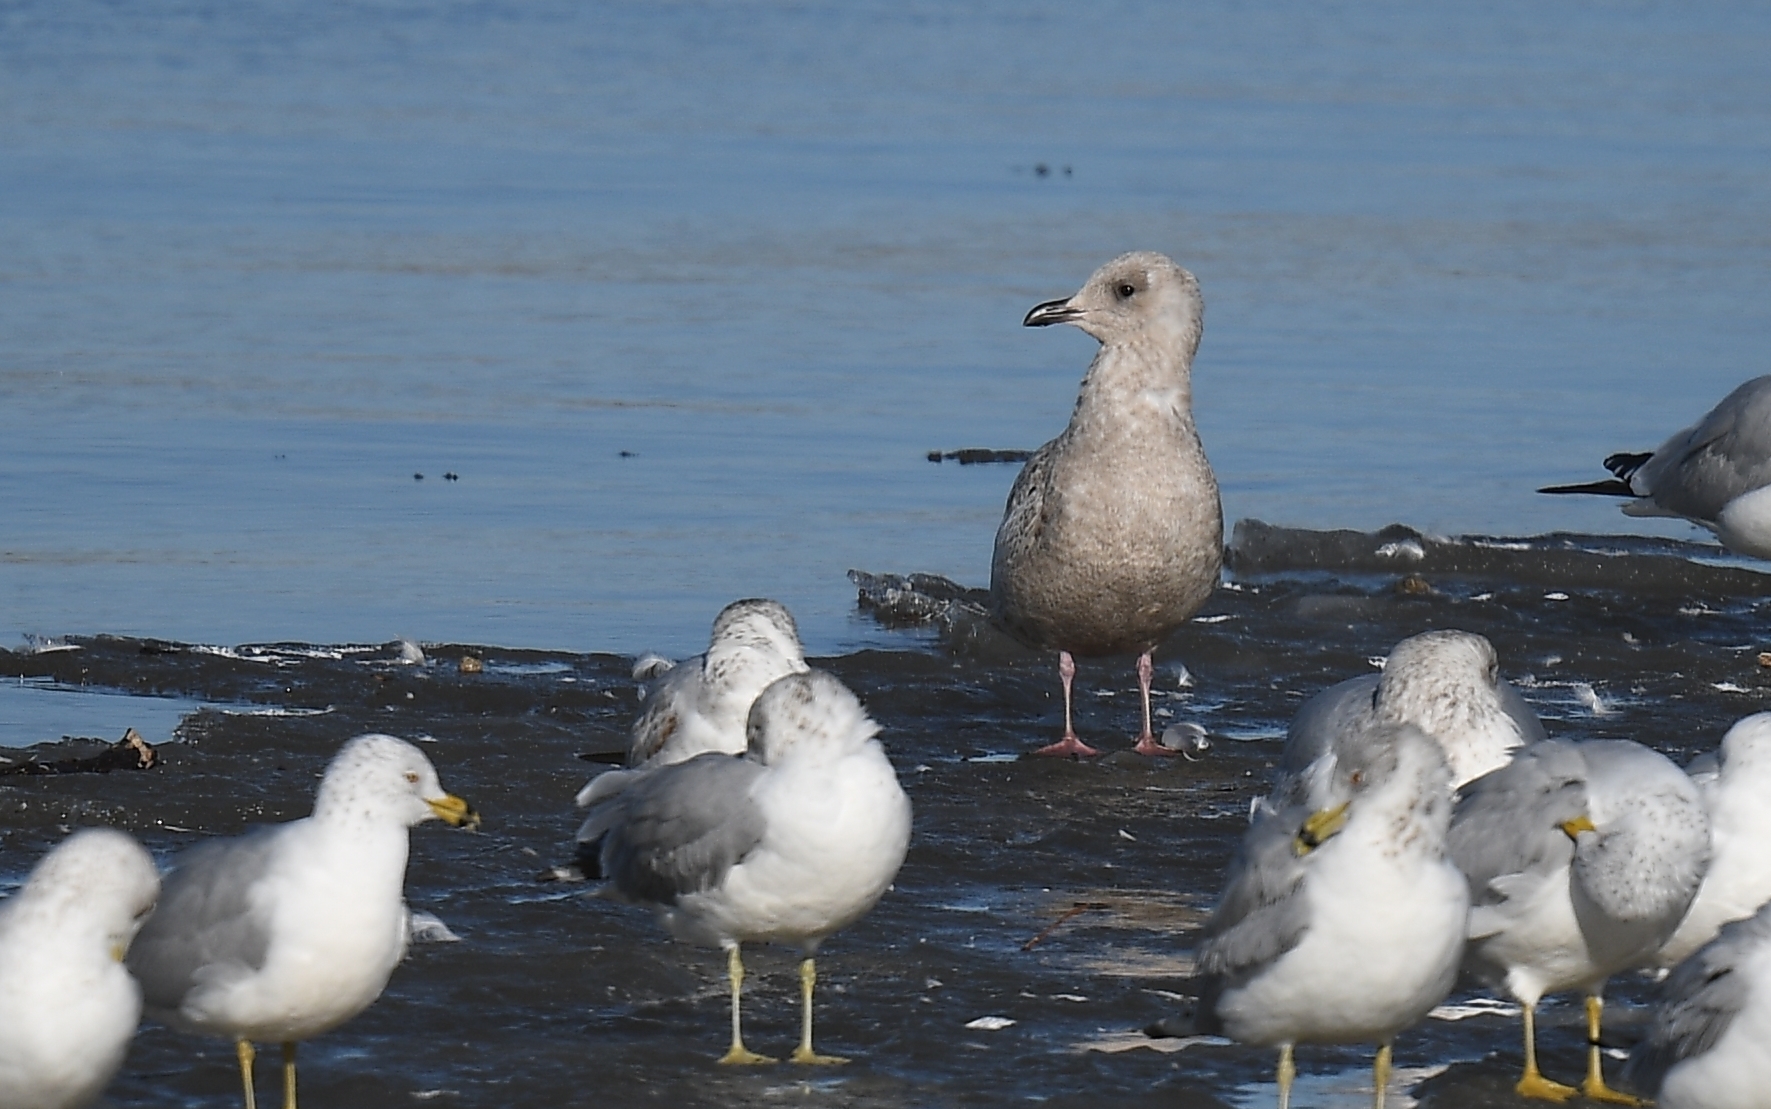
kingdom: Animalia
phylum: Chordata
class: Aves
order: Charadriiformes
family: Laridae
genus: Larus
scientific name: Larus glaucoides
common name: Iceland gull
